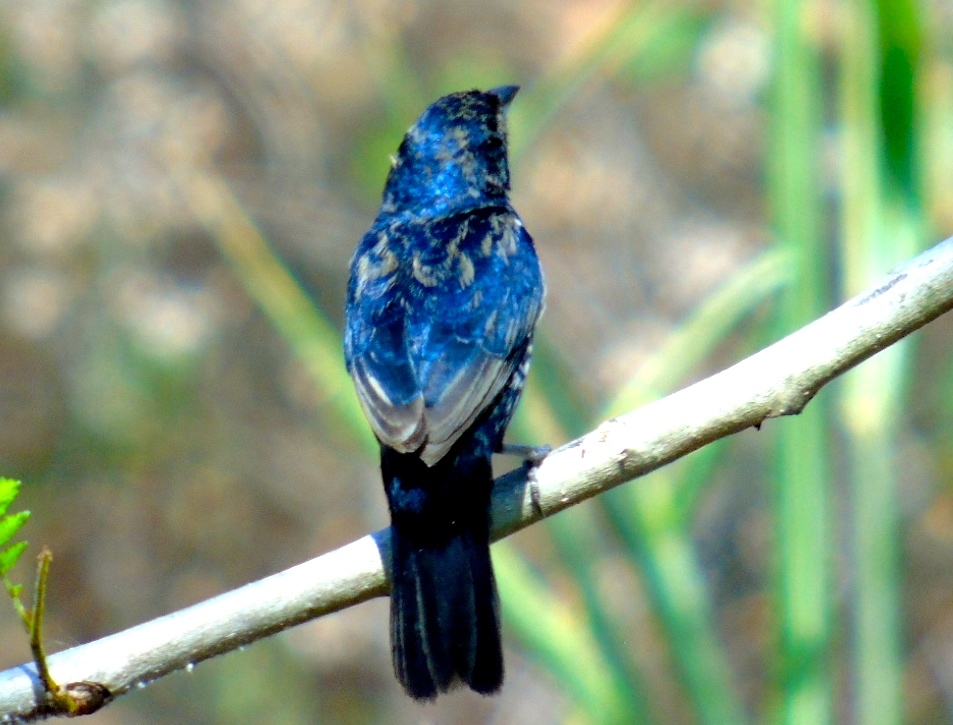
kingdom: Animalia
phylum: Chordata
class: Aves
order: Passeriformes
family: Thraupidae
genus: Volatinia
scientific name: Volatinia jacarina
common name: Blue-black grassquit
